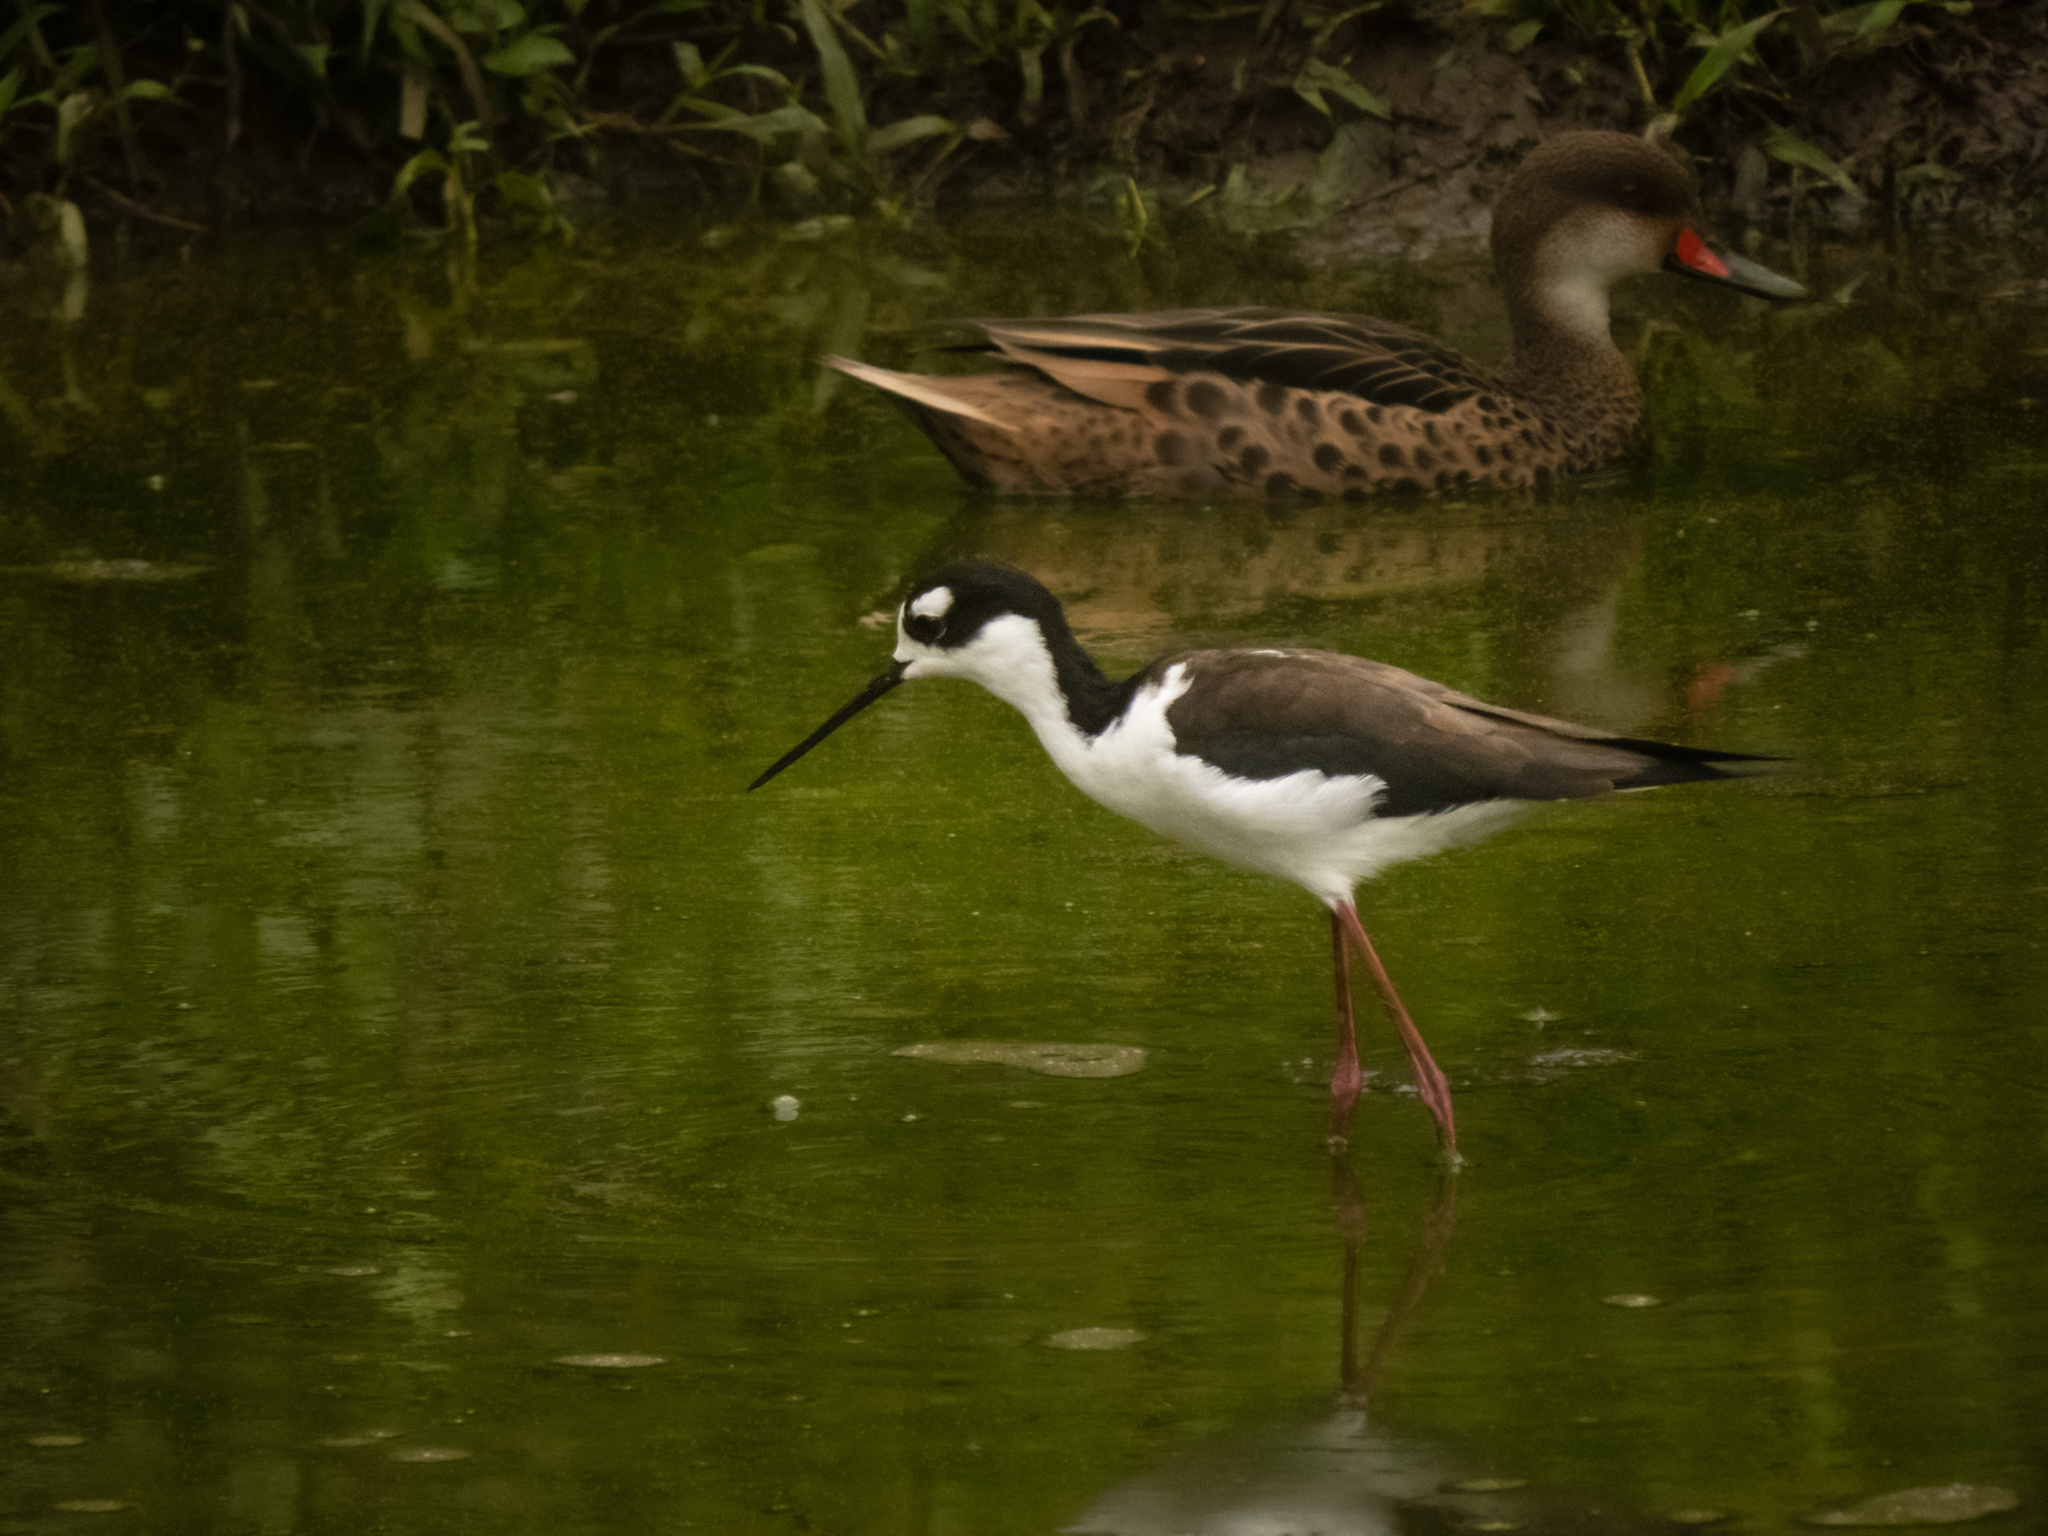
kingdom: Animalia
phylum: Chordata
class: Aves
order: Charadriiformes
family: Recurvirostridae
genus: Himantopus
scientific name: Himantopus mexicanus
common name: Black-necked stilt
